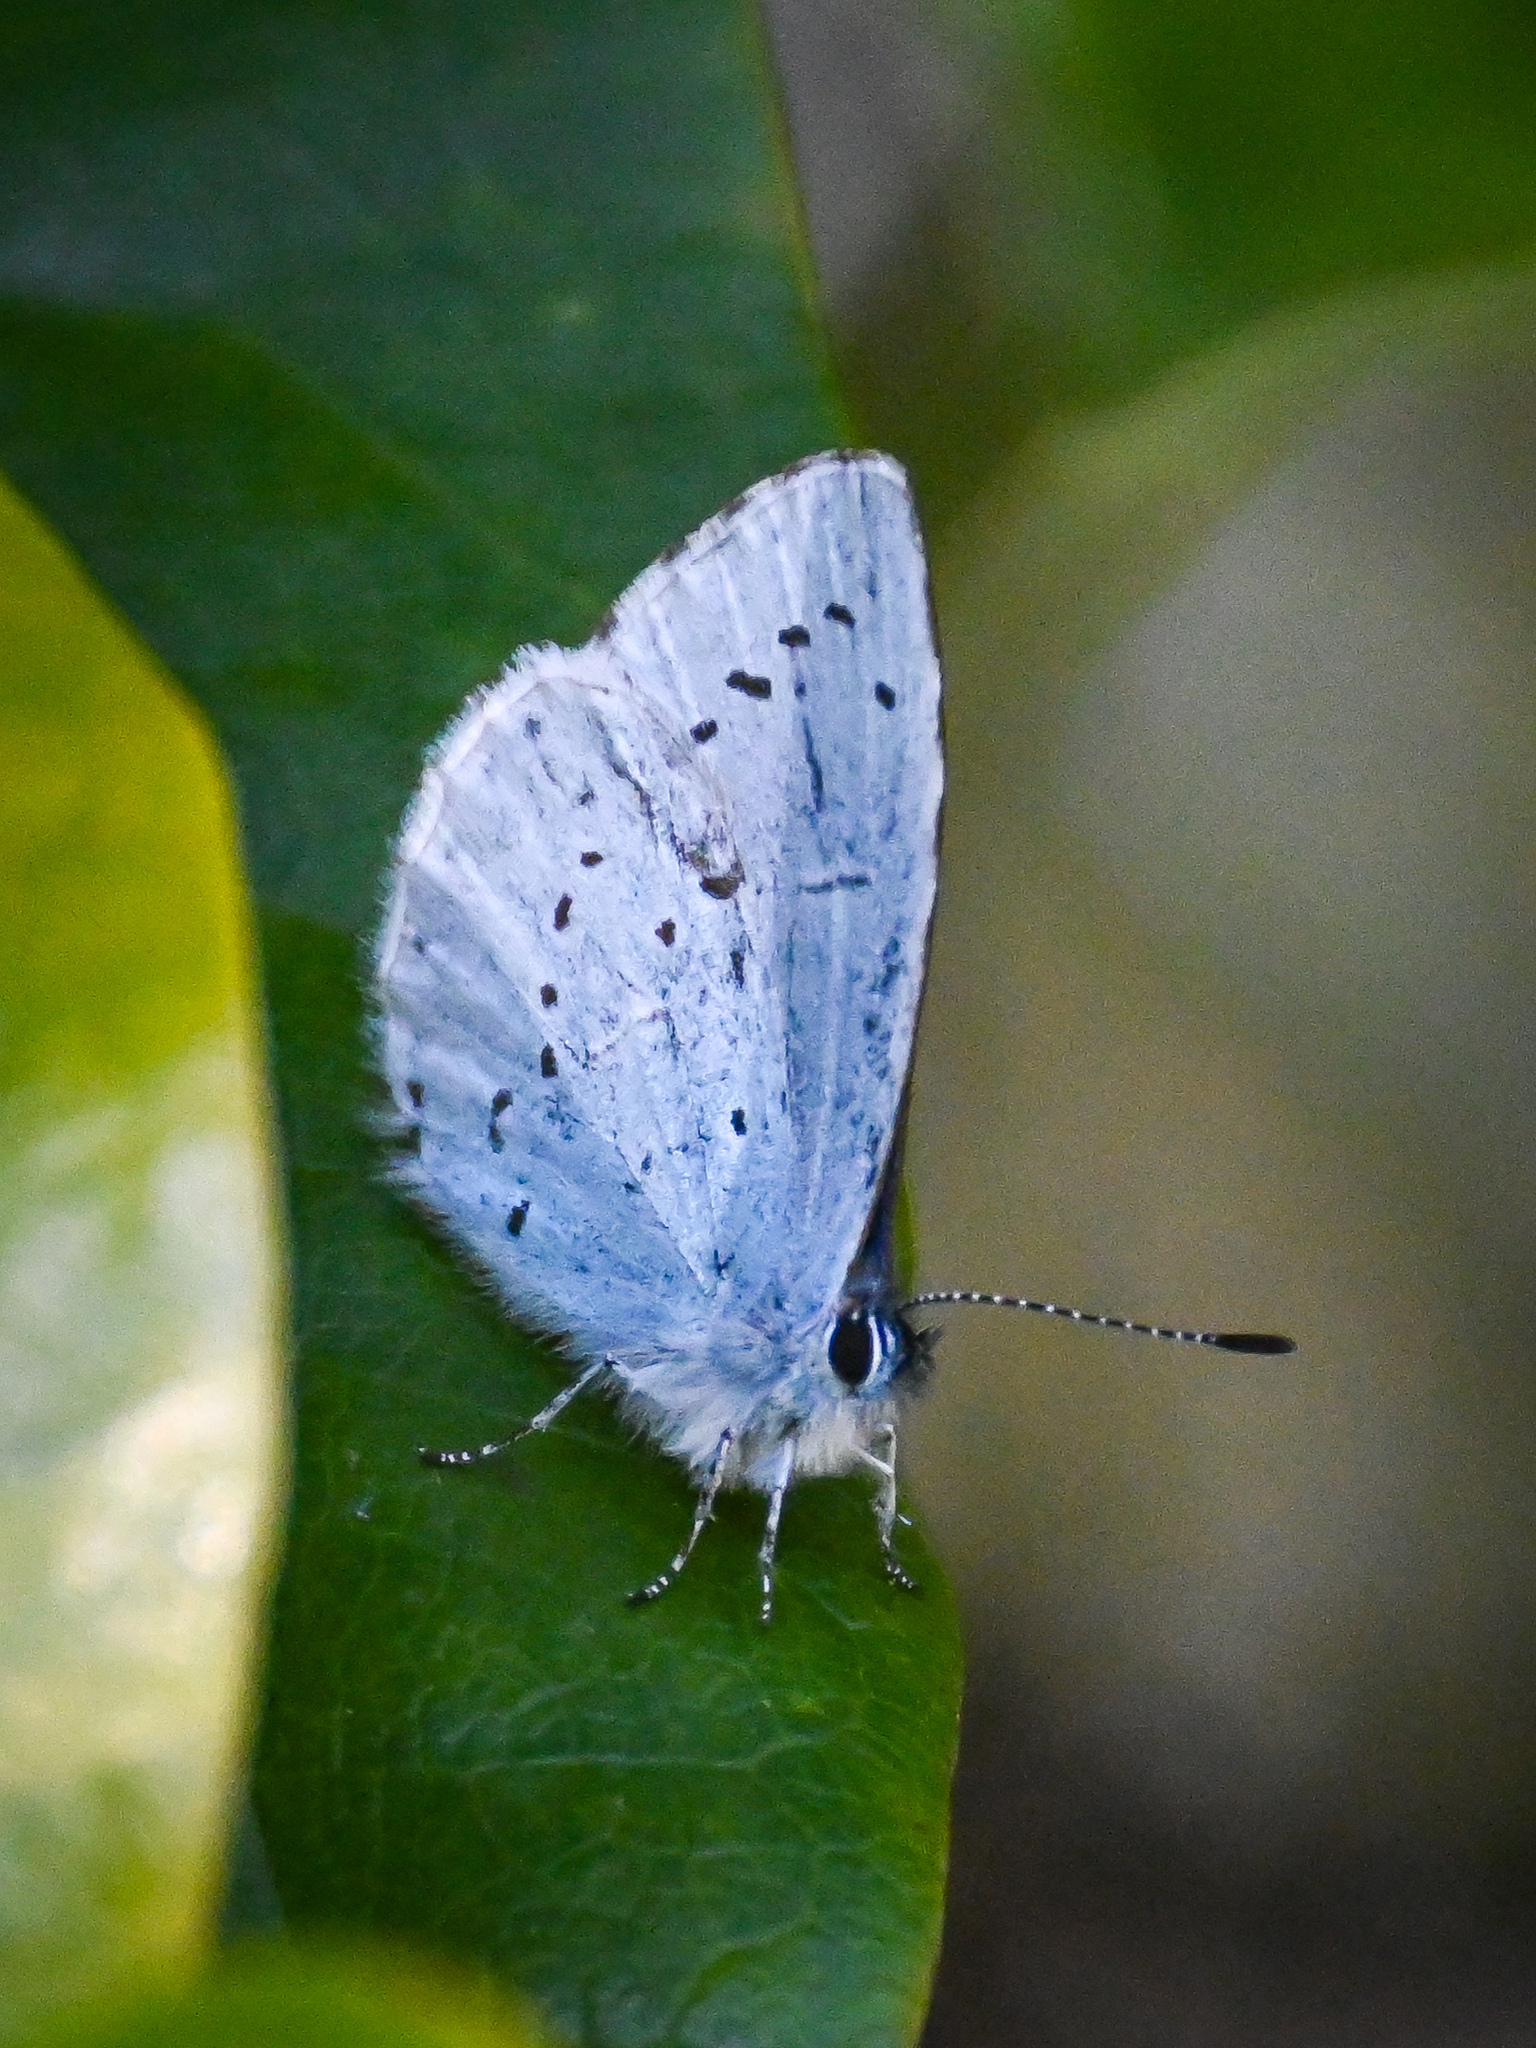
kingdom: Animalia
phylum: Arthropoda
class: Insecta
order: Lepidoptera
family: Lycaenidae
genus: Celastrina
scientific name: Celastrina argiolus
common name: Holly blue
